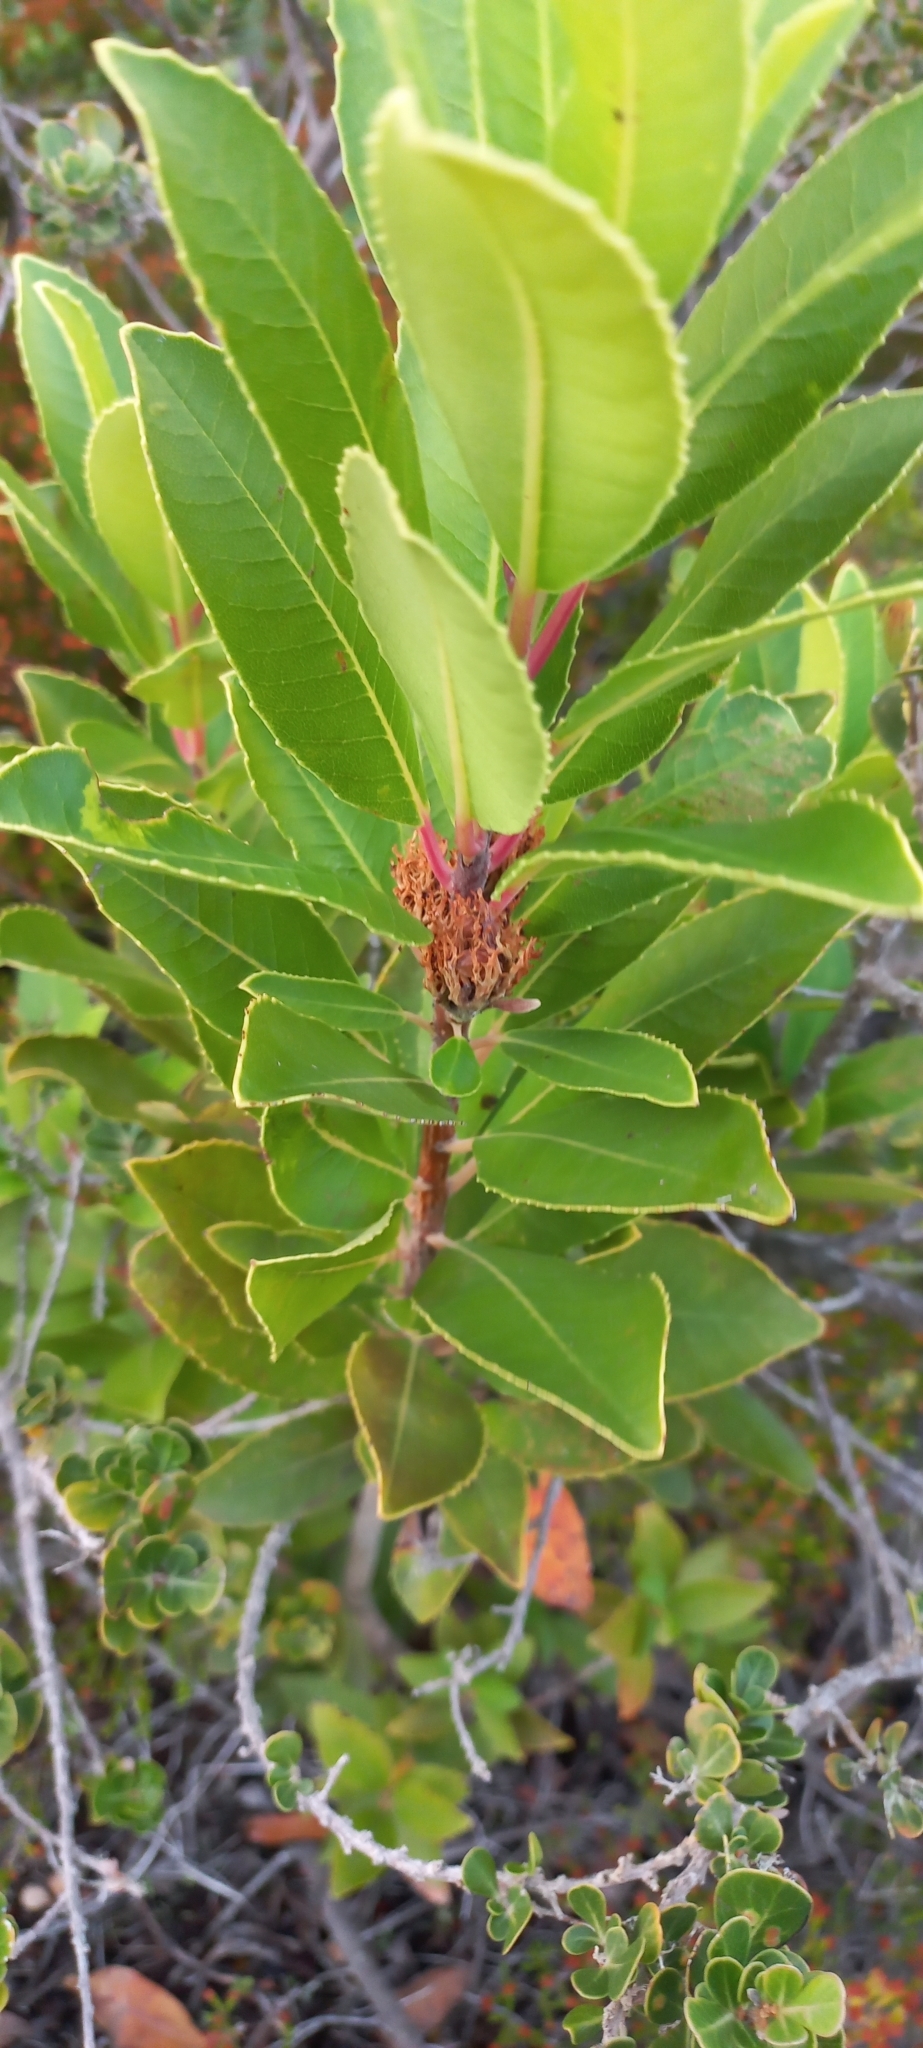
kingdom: Plantae
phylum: Tracheophyta
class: Magnoliopsida
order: Sapindales
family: Anacardiaceae
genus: Laurophyllus
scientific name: Laurophyllus capensis
